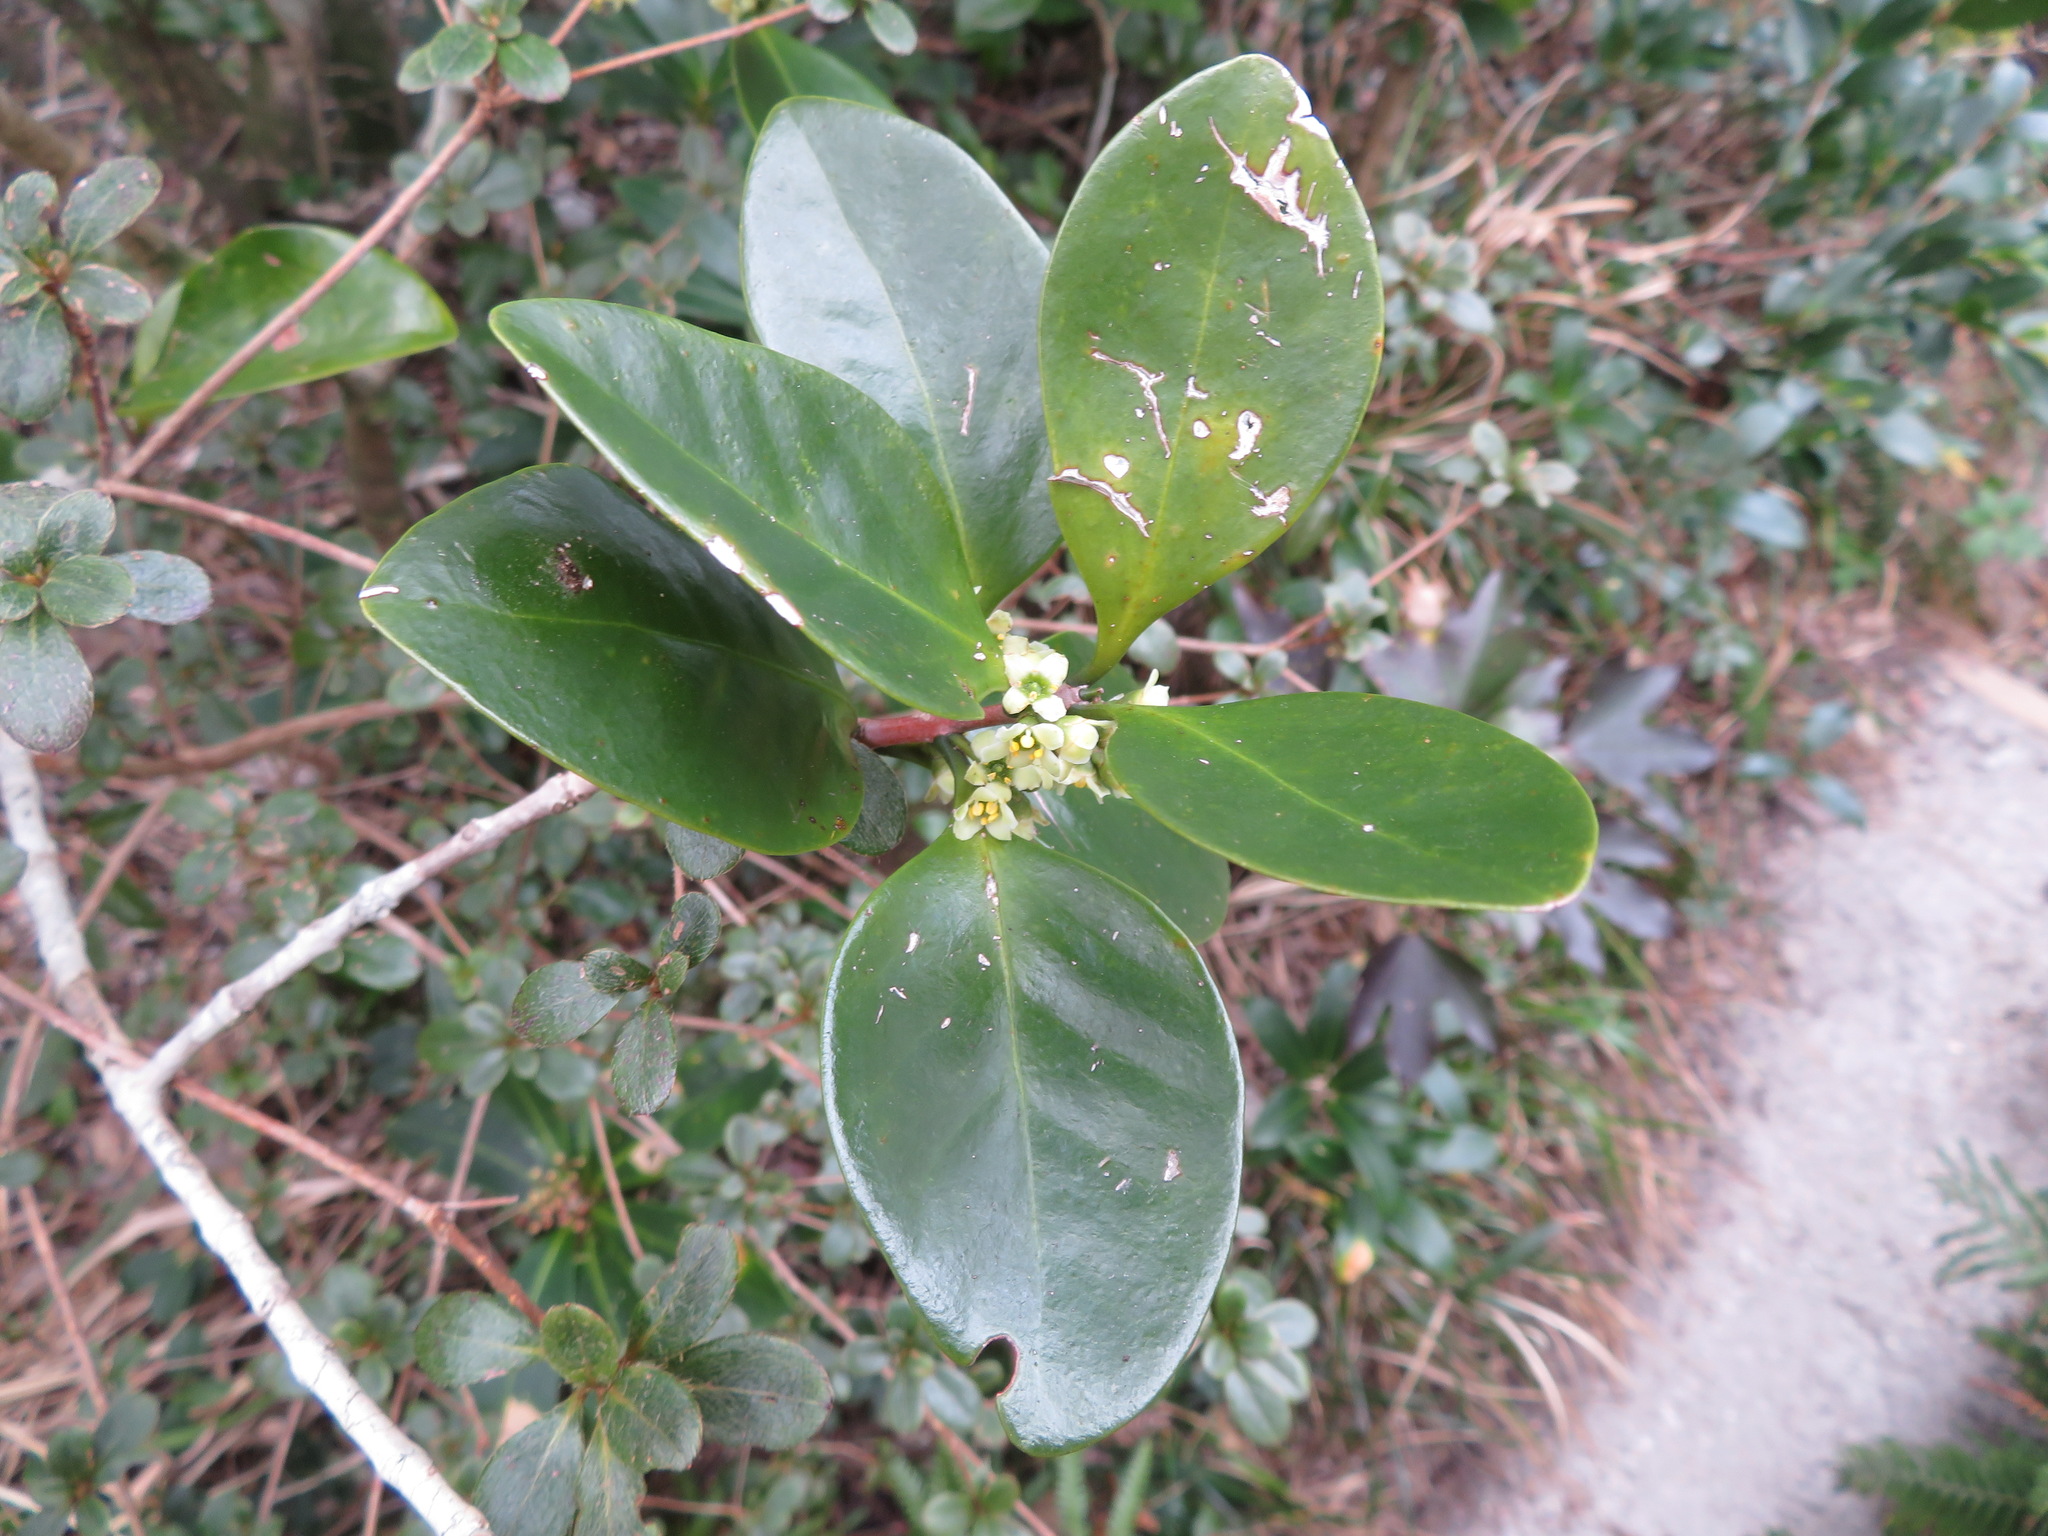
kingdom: Plantae
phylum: Tracheophyta
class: Magnoliopsida
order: Celastrales
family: Celastraceae
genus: Microtropis
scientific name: Microtropis japonica
